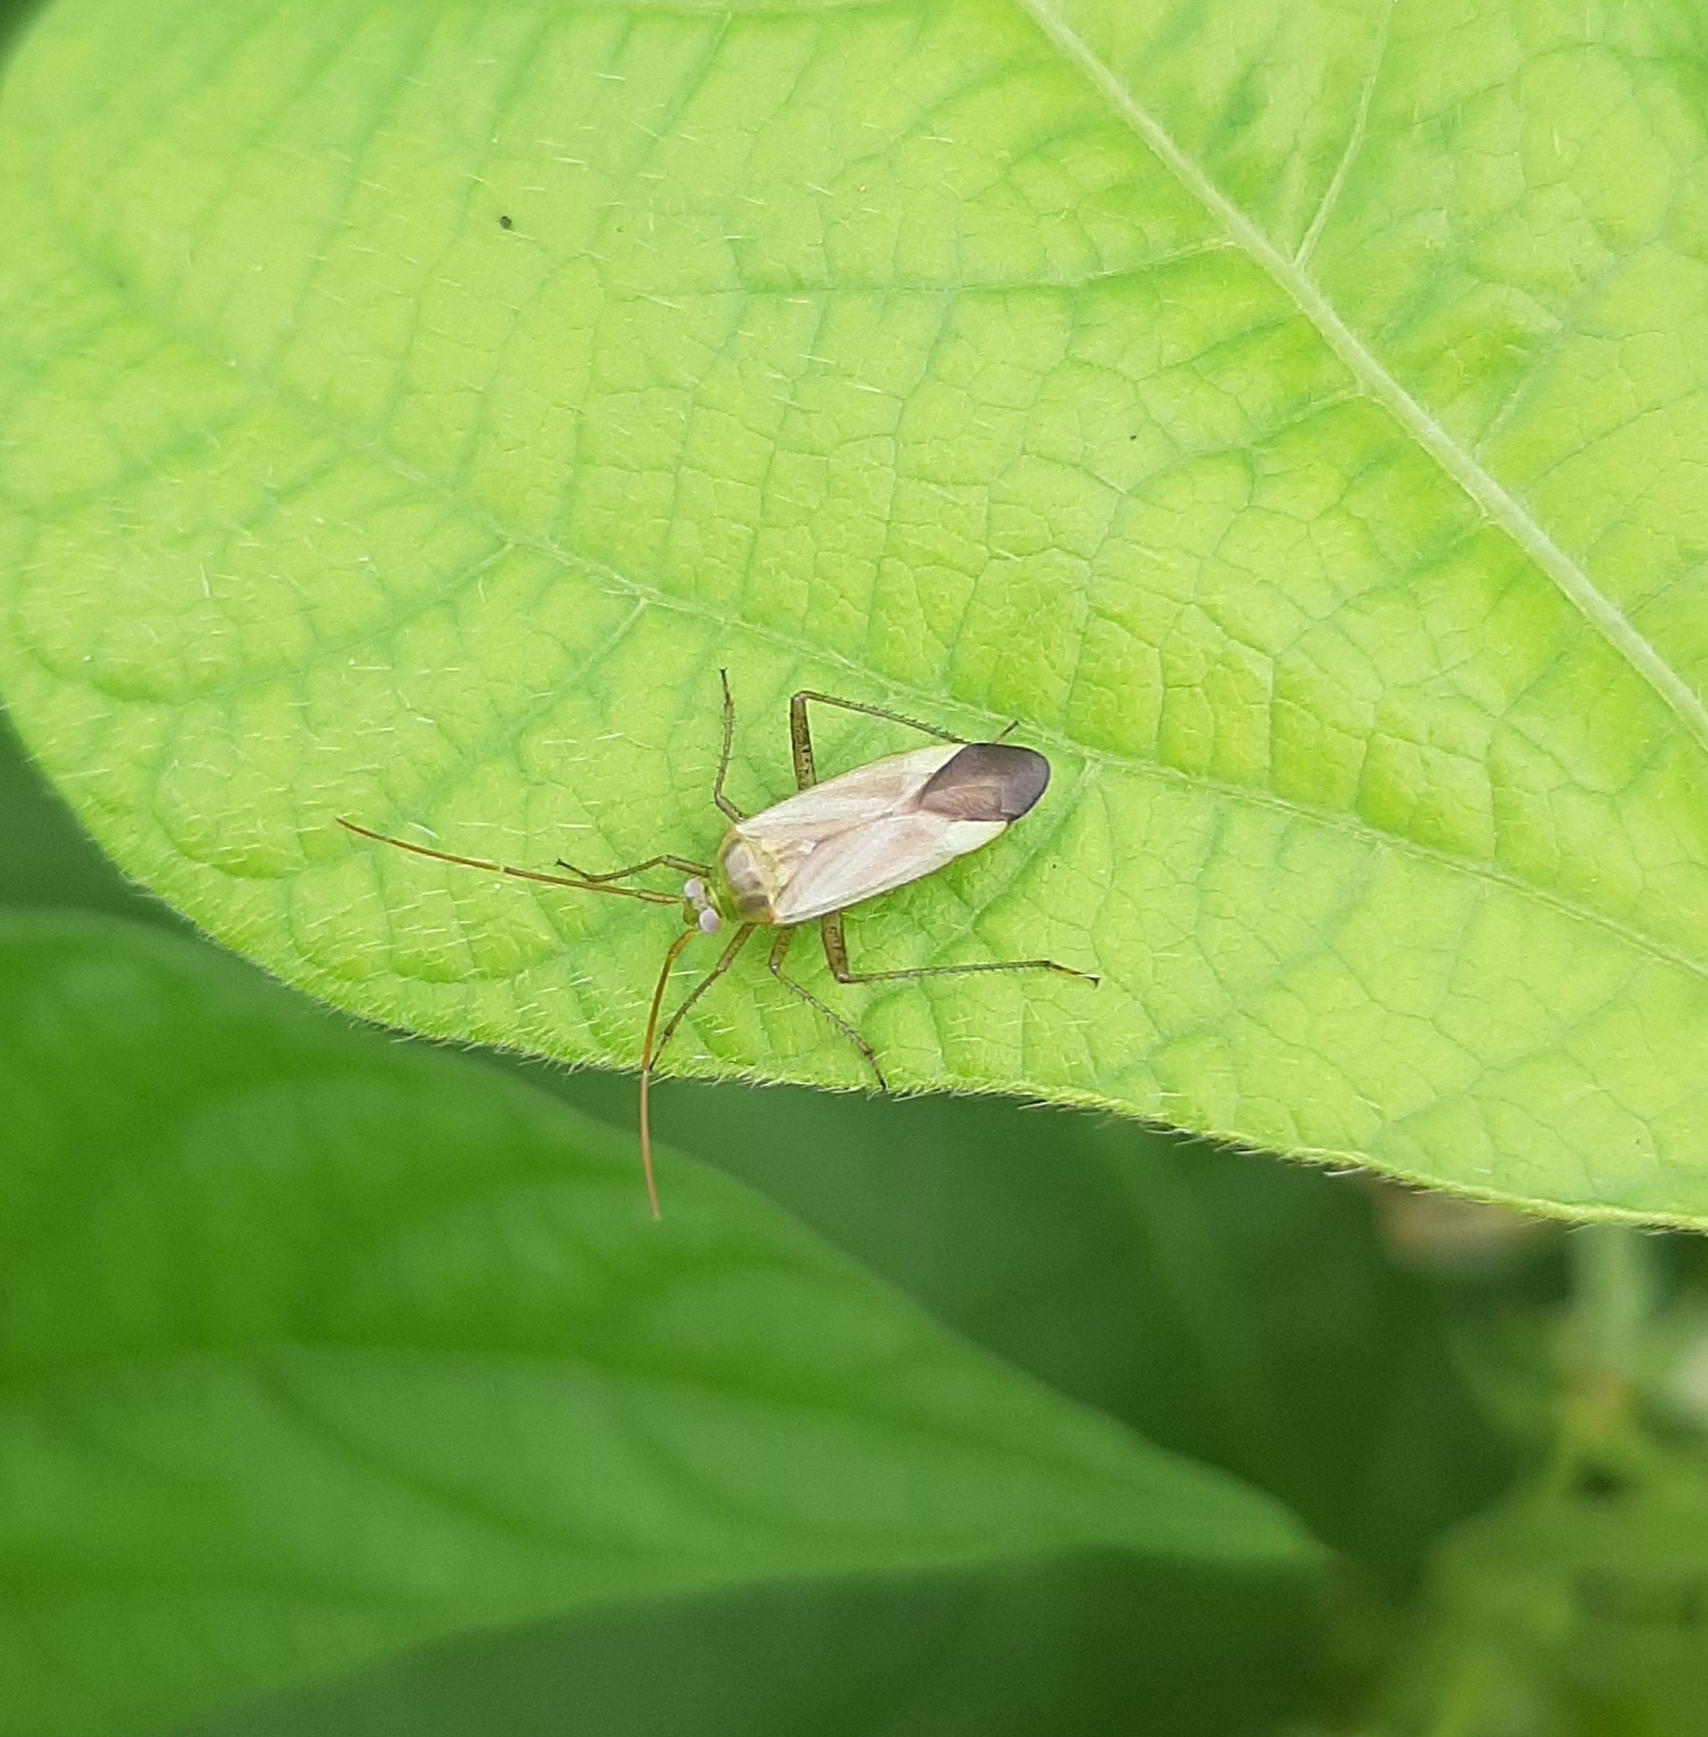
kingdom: Animalia
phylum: Arthropoda
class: Insecta
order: Hemiptera
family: Miridae
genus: Adelphocoris
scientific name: Adelphocoris lineolatus
